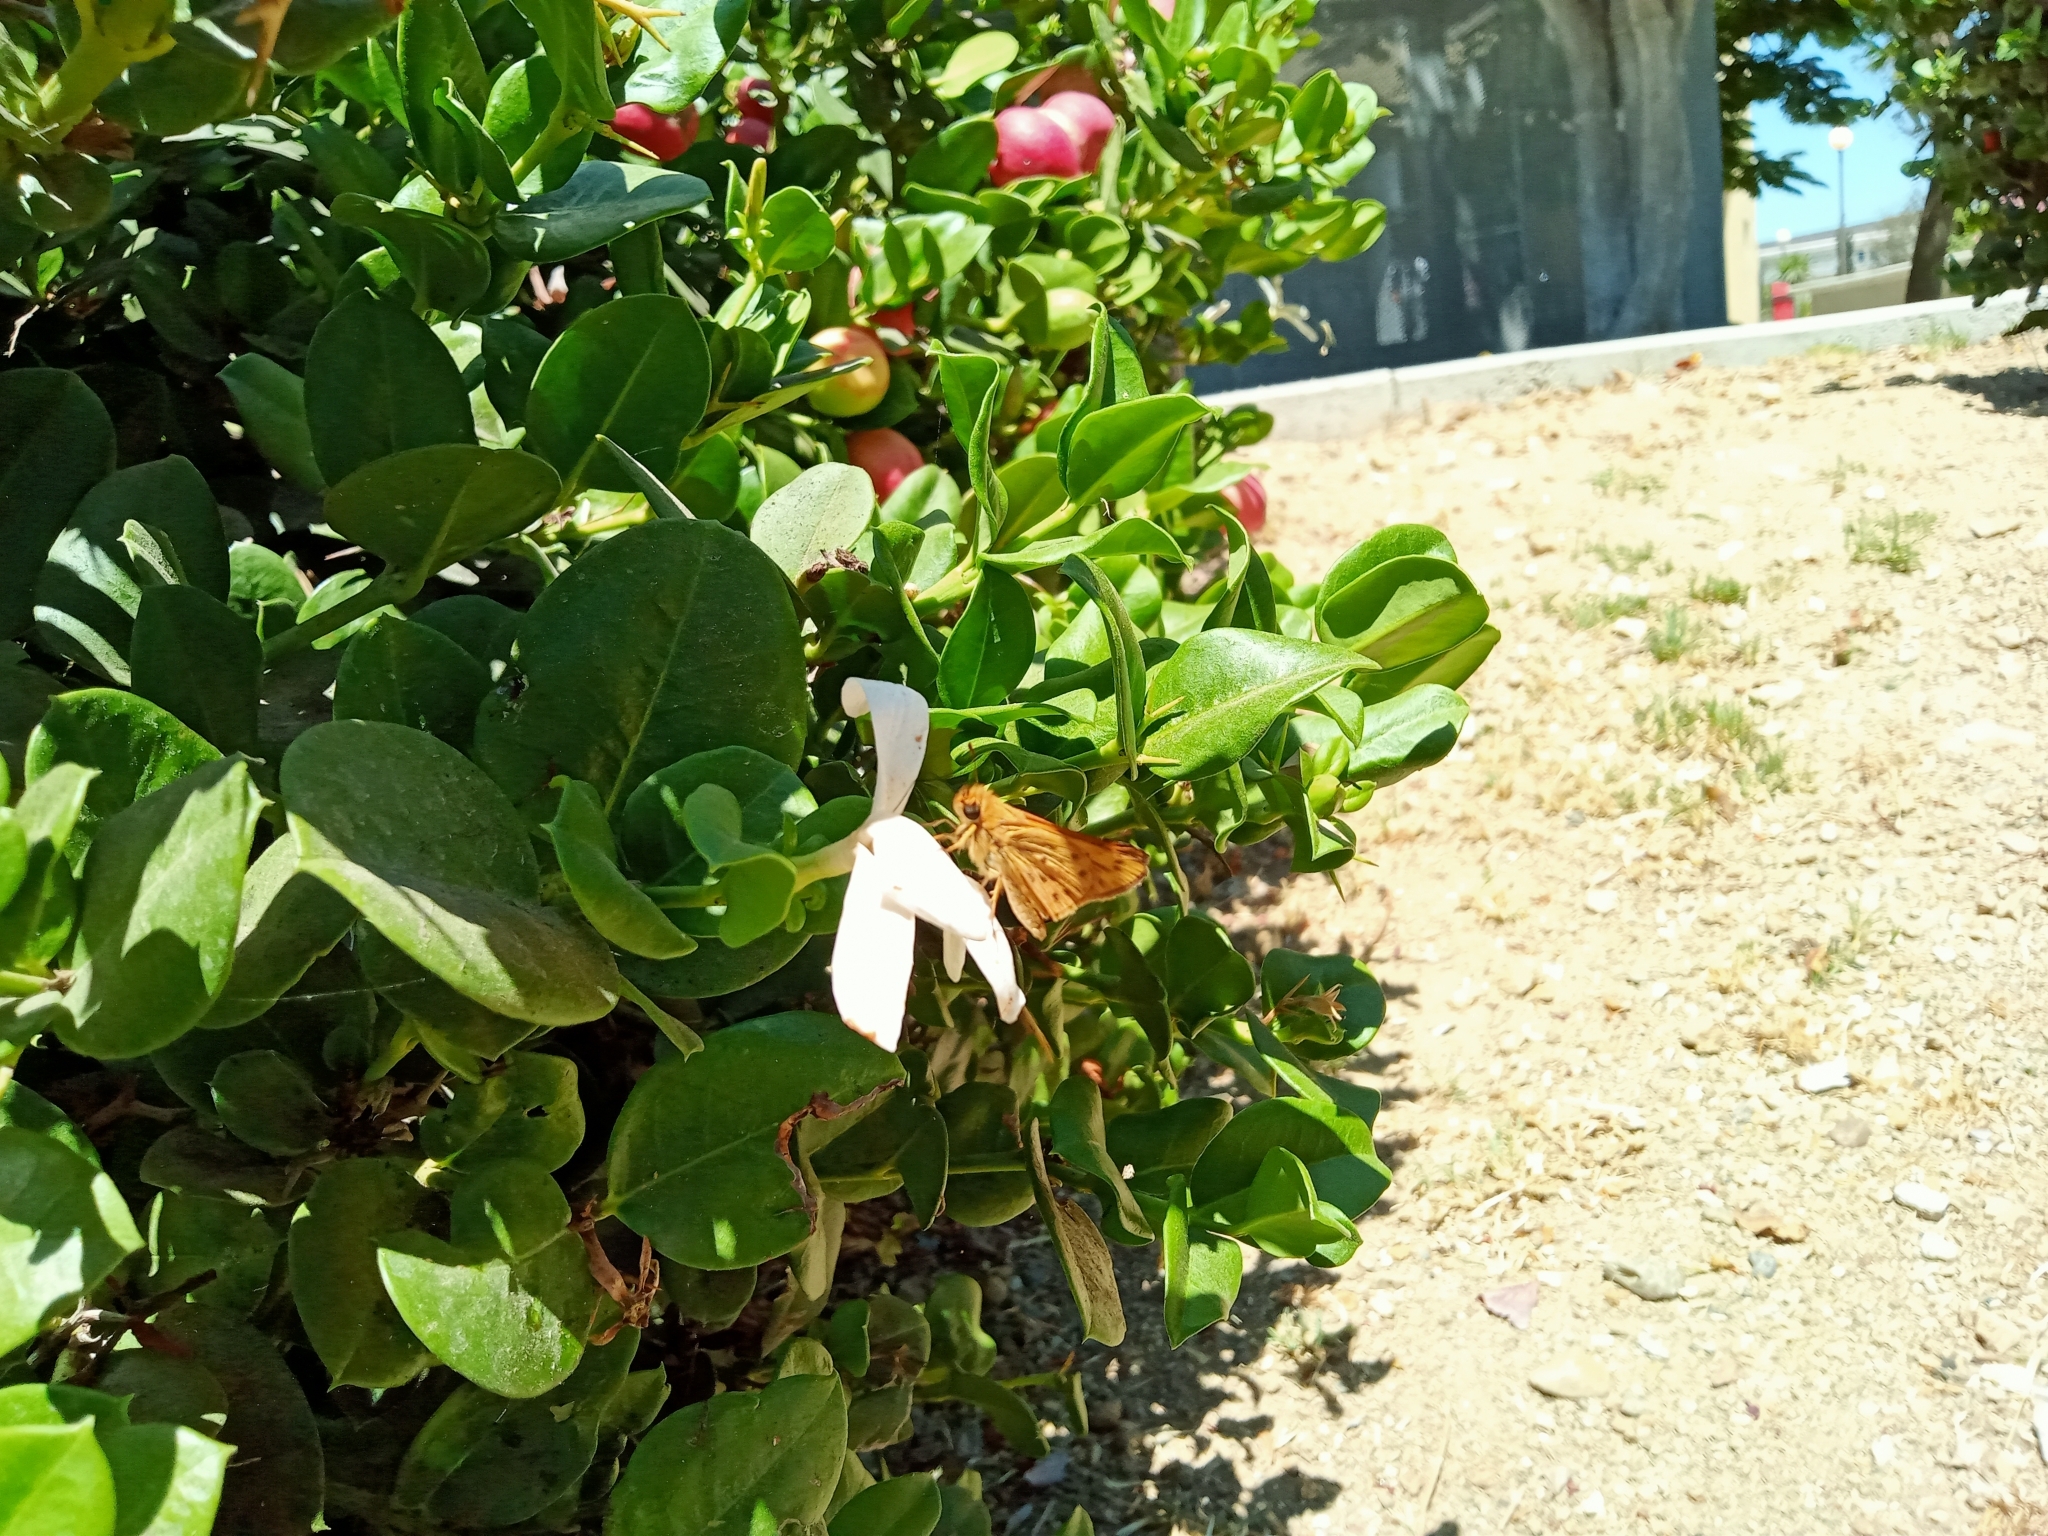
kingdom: Animalia
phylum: Arthropoda
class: Insecta
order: Lepidoptera
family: Hesperiidae
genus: Hylephila
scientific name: Hylephila phyleus
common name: Fiery skipper
